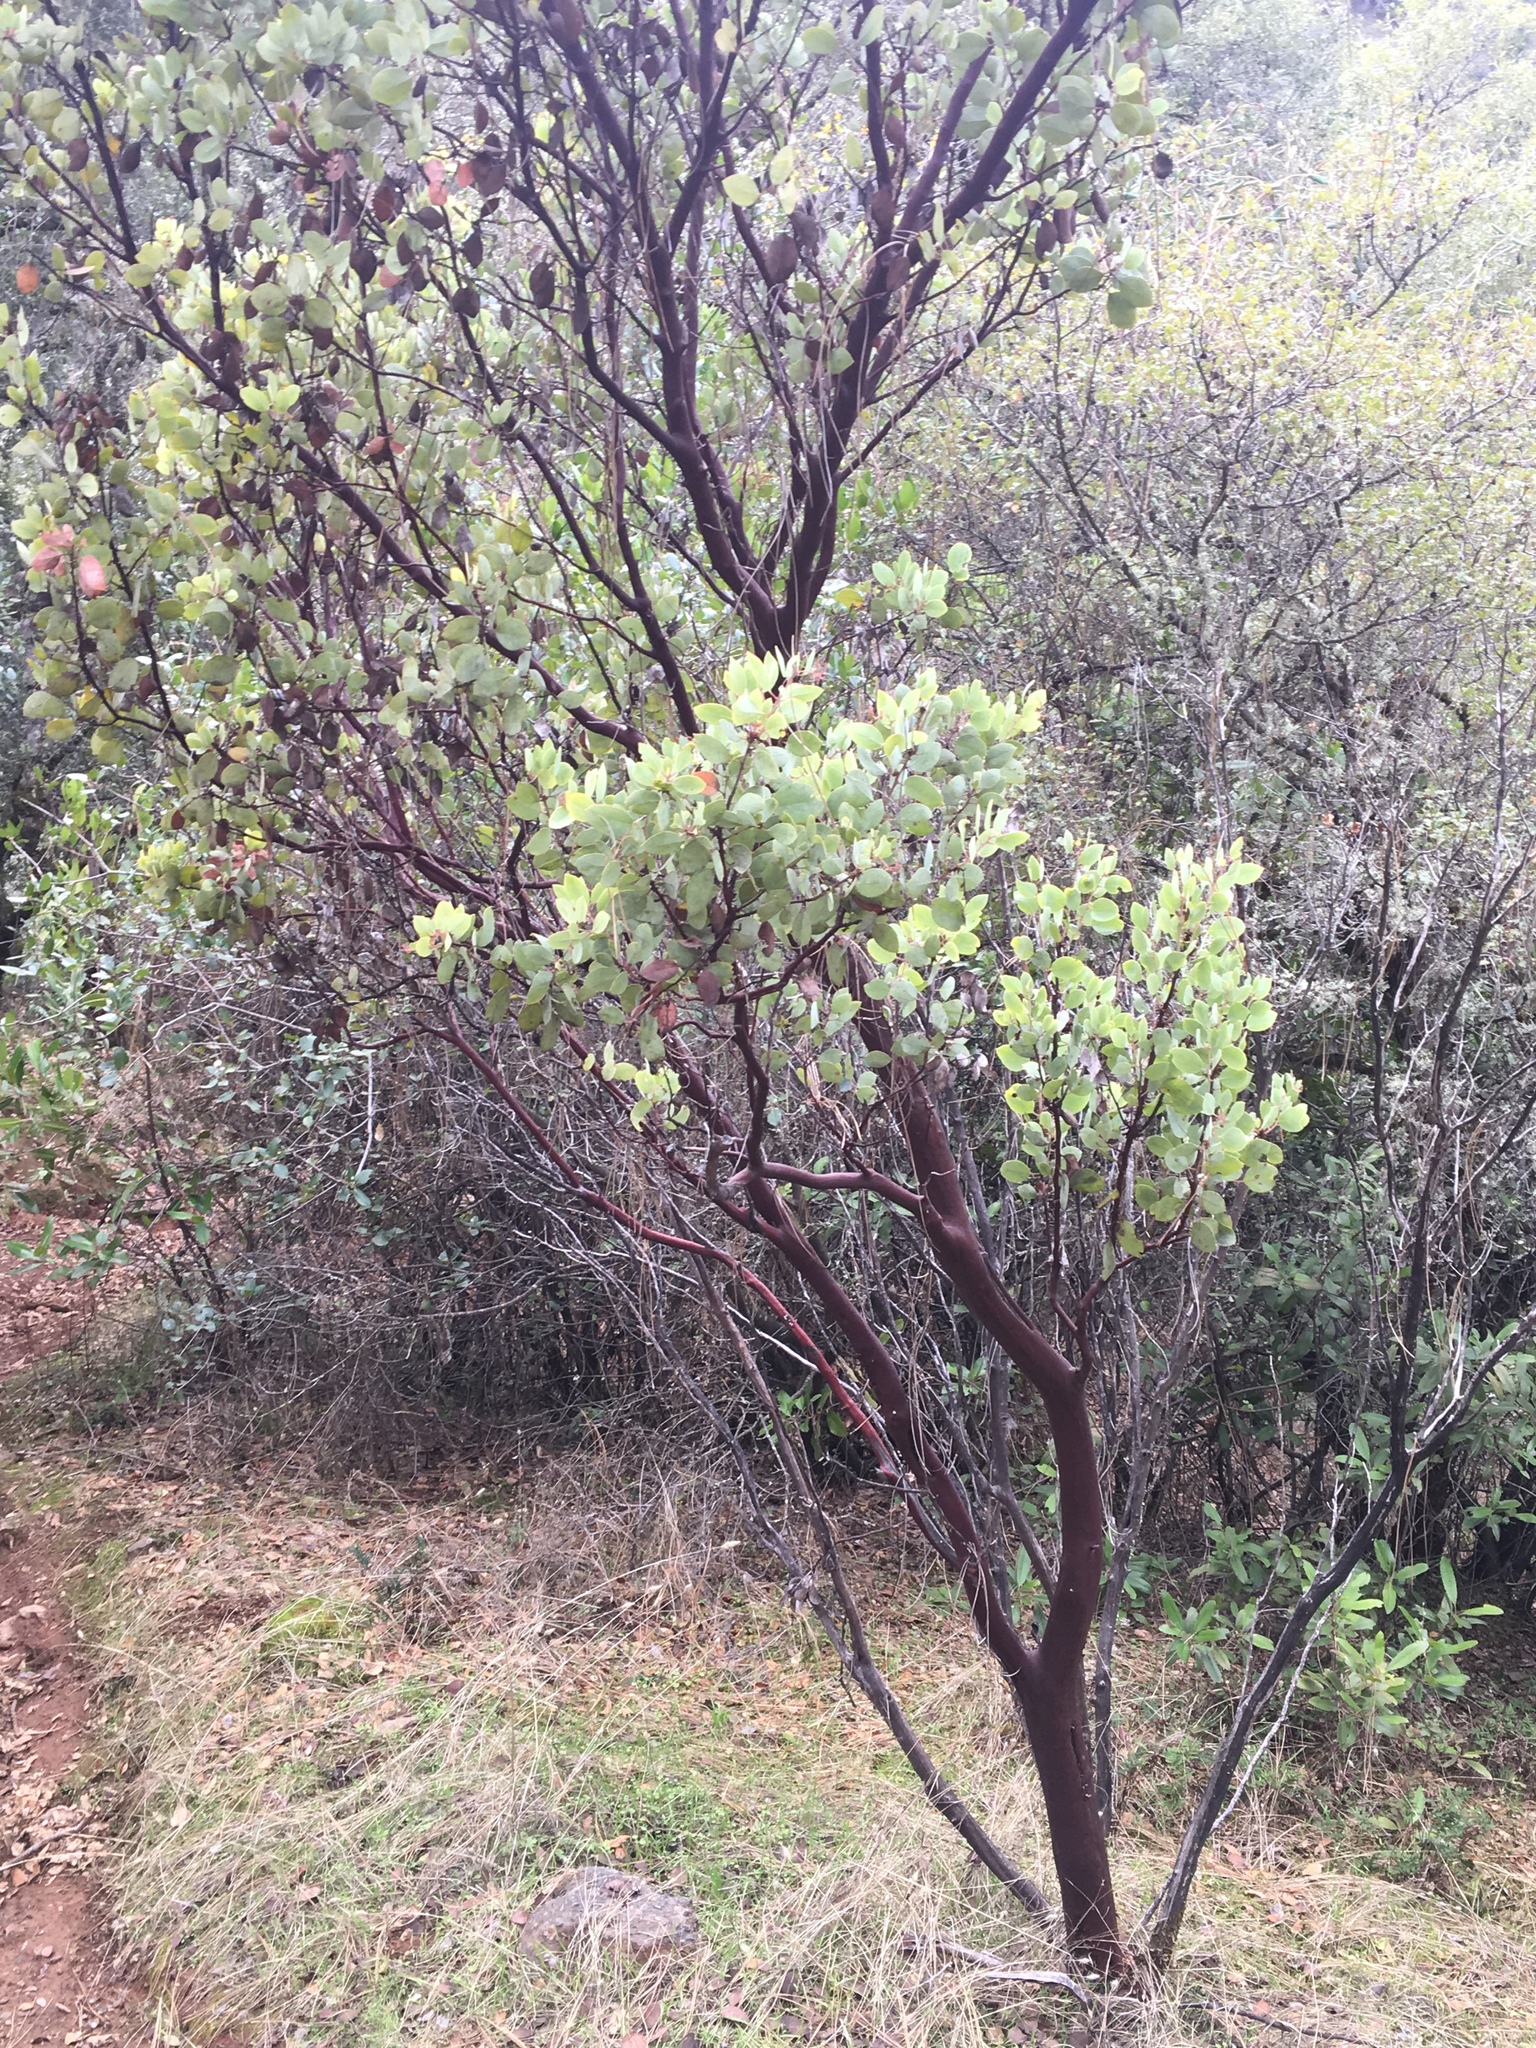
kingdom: Plantae
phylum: Tracheophyta
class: Magnoliopsida
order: Ericales
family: Ericaceae
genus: Arctostaphylos
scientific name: Arctostaphylos viscida
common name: White-leaf manzanita
